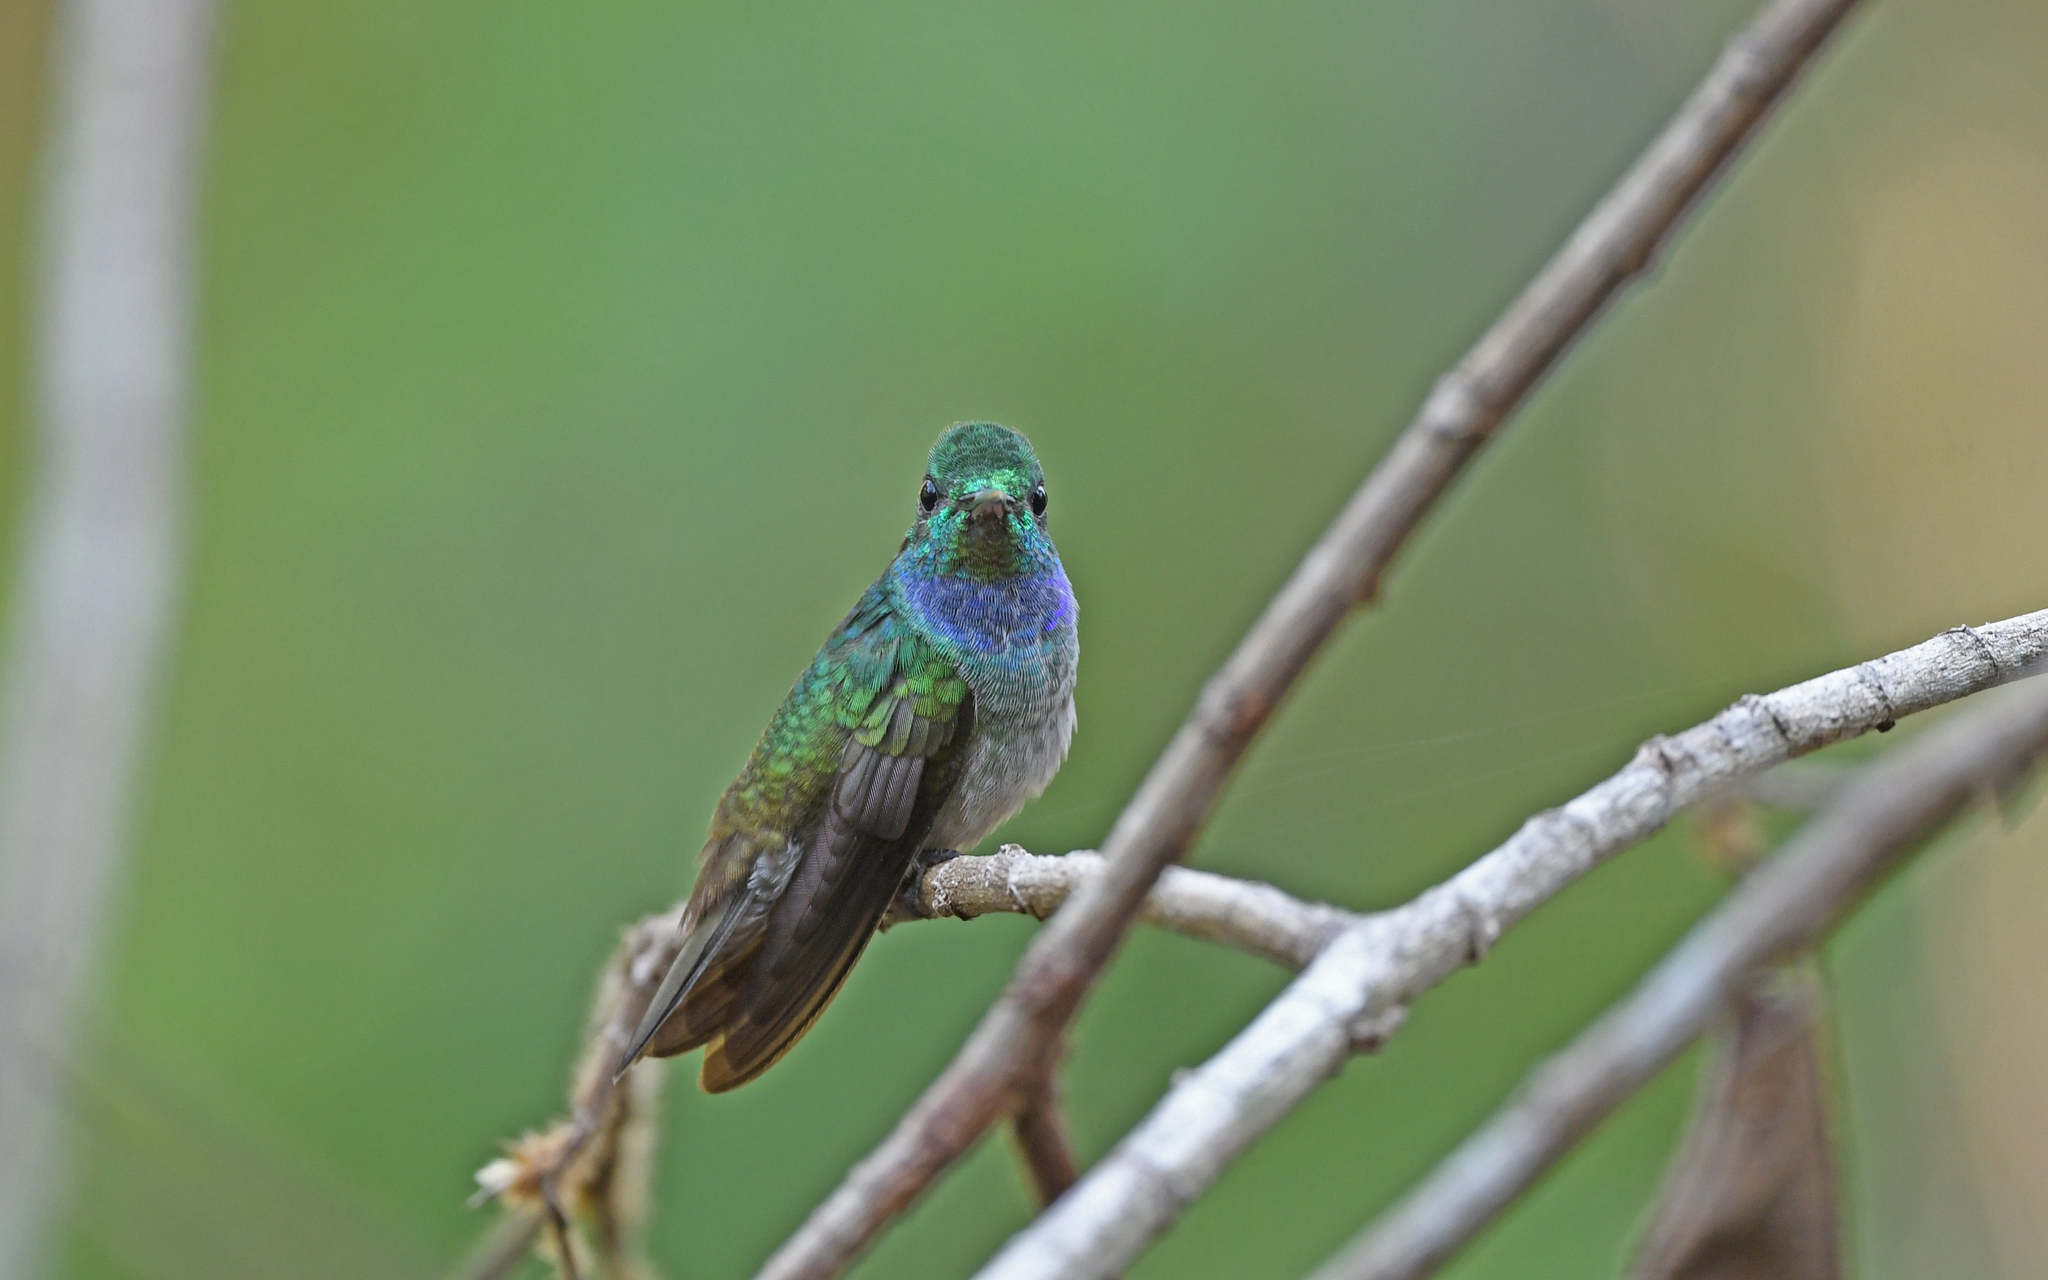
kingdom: Animalia
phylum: Chordata
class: Aves
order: Apodiformes
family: Trochilidae
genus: Polyerata
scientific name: Polyerata amabilis
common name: Blue-chested hummingbird
